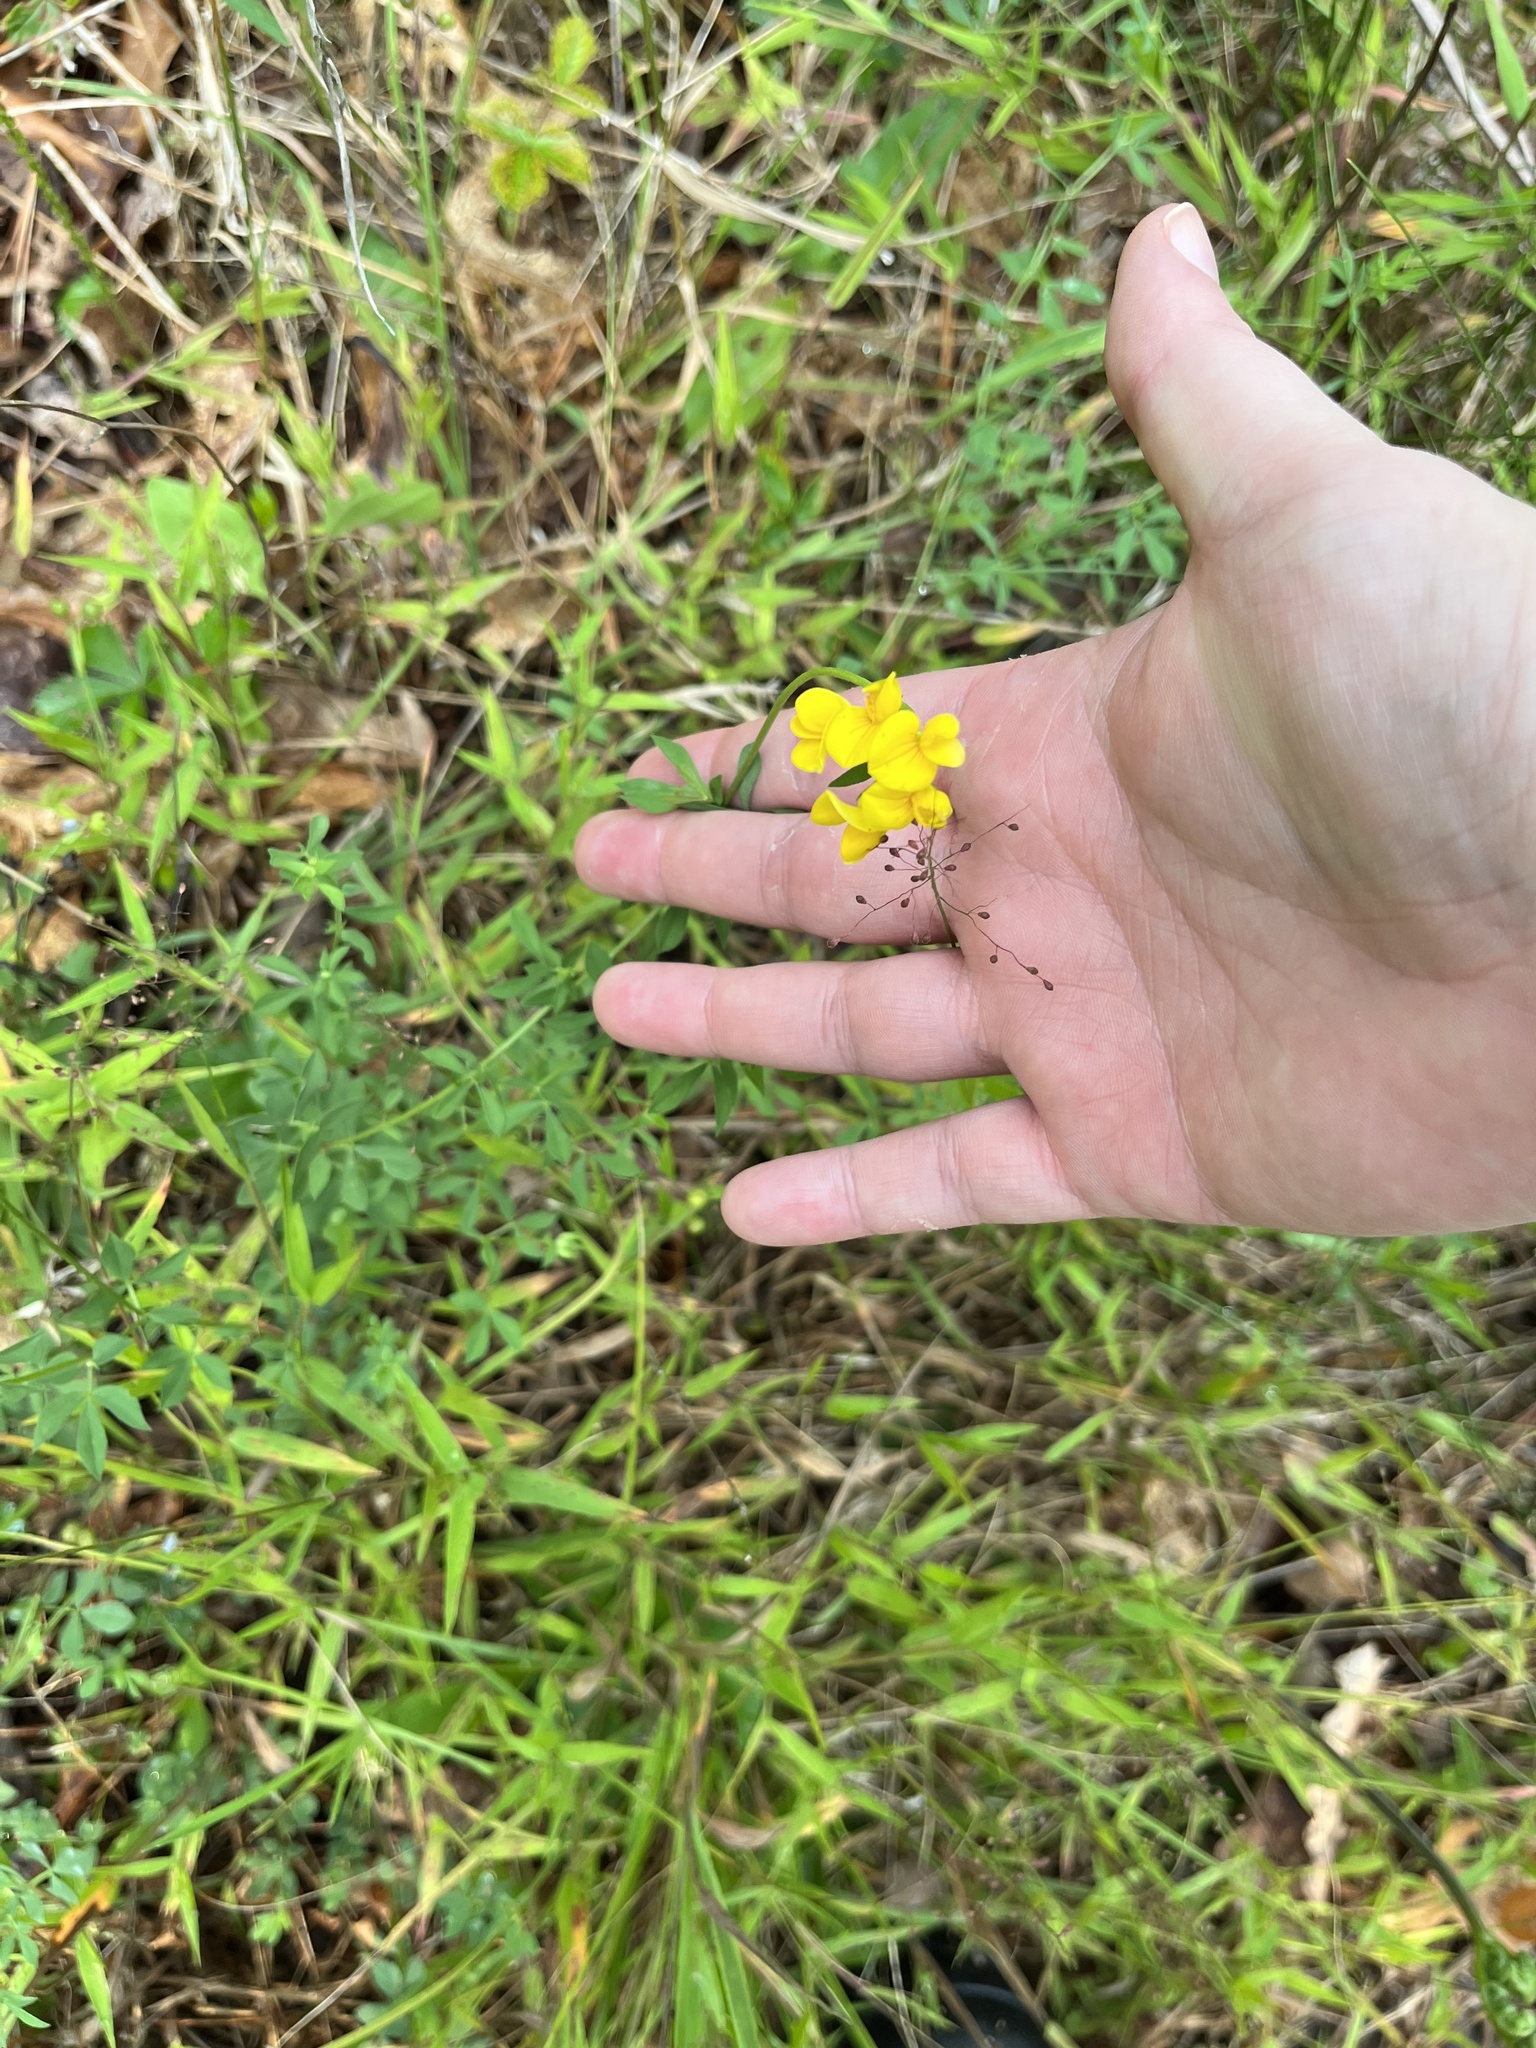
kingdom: Plantae
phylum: Tracheophyta
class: Magnoliopsida
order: Fabales
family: Fabaceae
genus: Lotus
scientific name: Lotus corniculatus
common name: Common bird's-foot-trefoil
